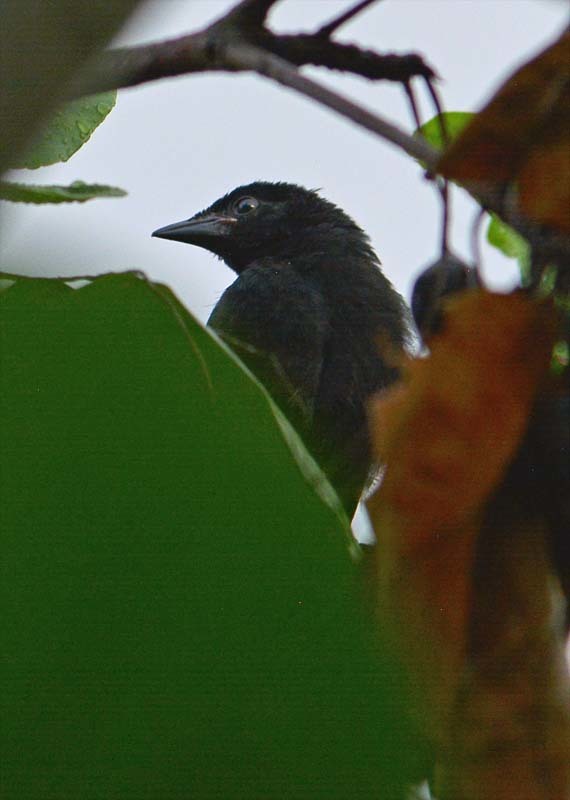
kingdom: Animalia
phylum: Chordata
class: Aves
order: Passeriformes
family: Icteridae
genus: Dives
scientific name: Dives dives
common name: Melodious blackbird
